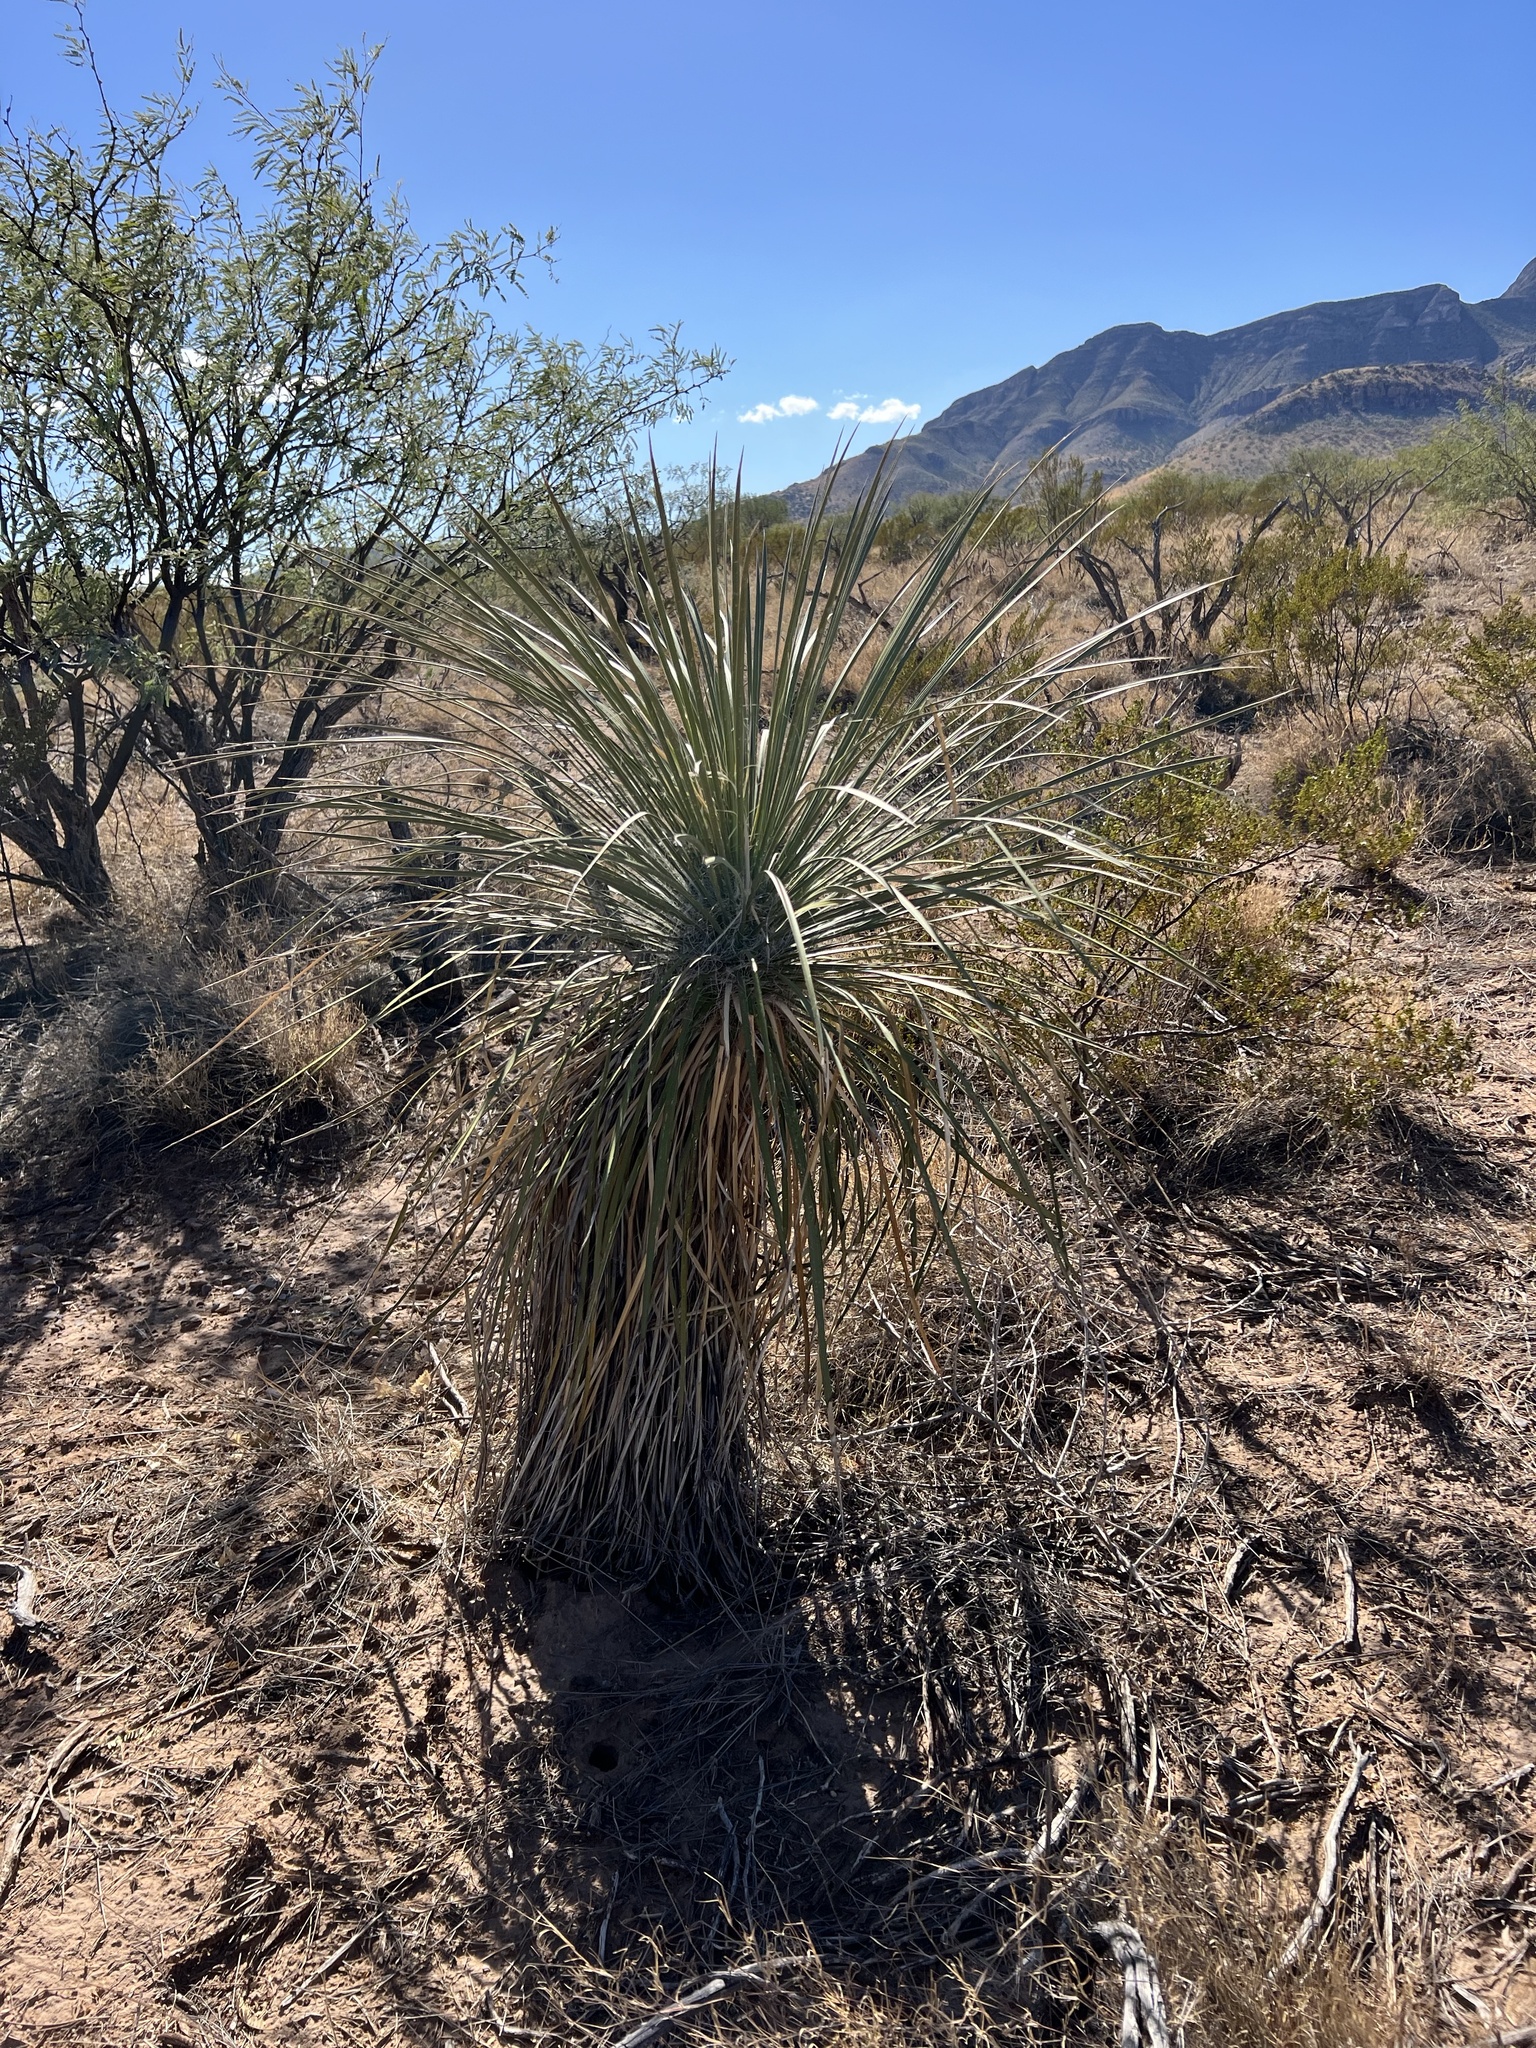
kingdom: Plantae
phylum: Tracheophyta
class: Liliopsida
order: Asparagales
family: Asparagaceae
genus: Yucca
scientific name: Yucca elata
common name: Palmella
